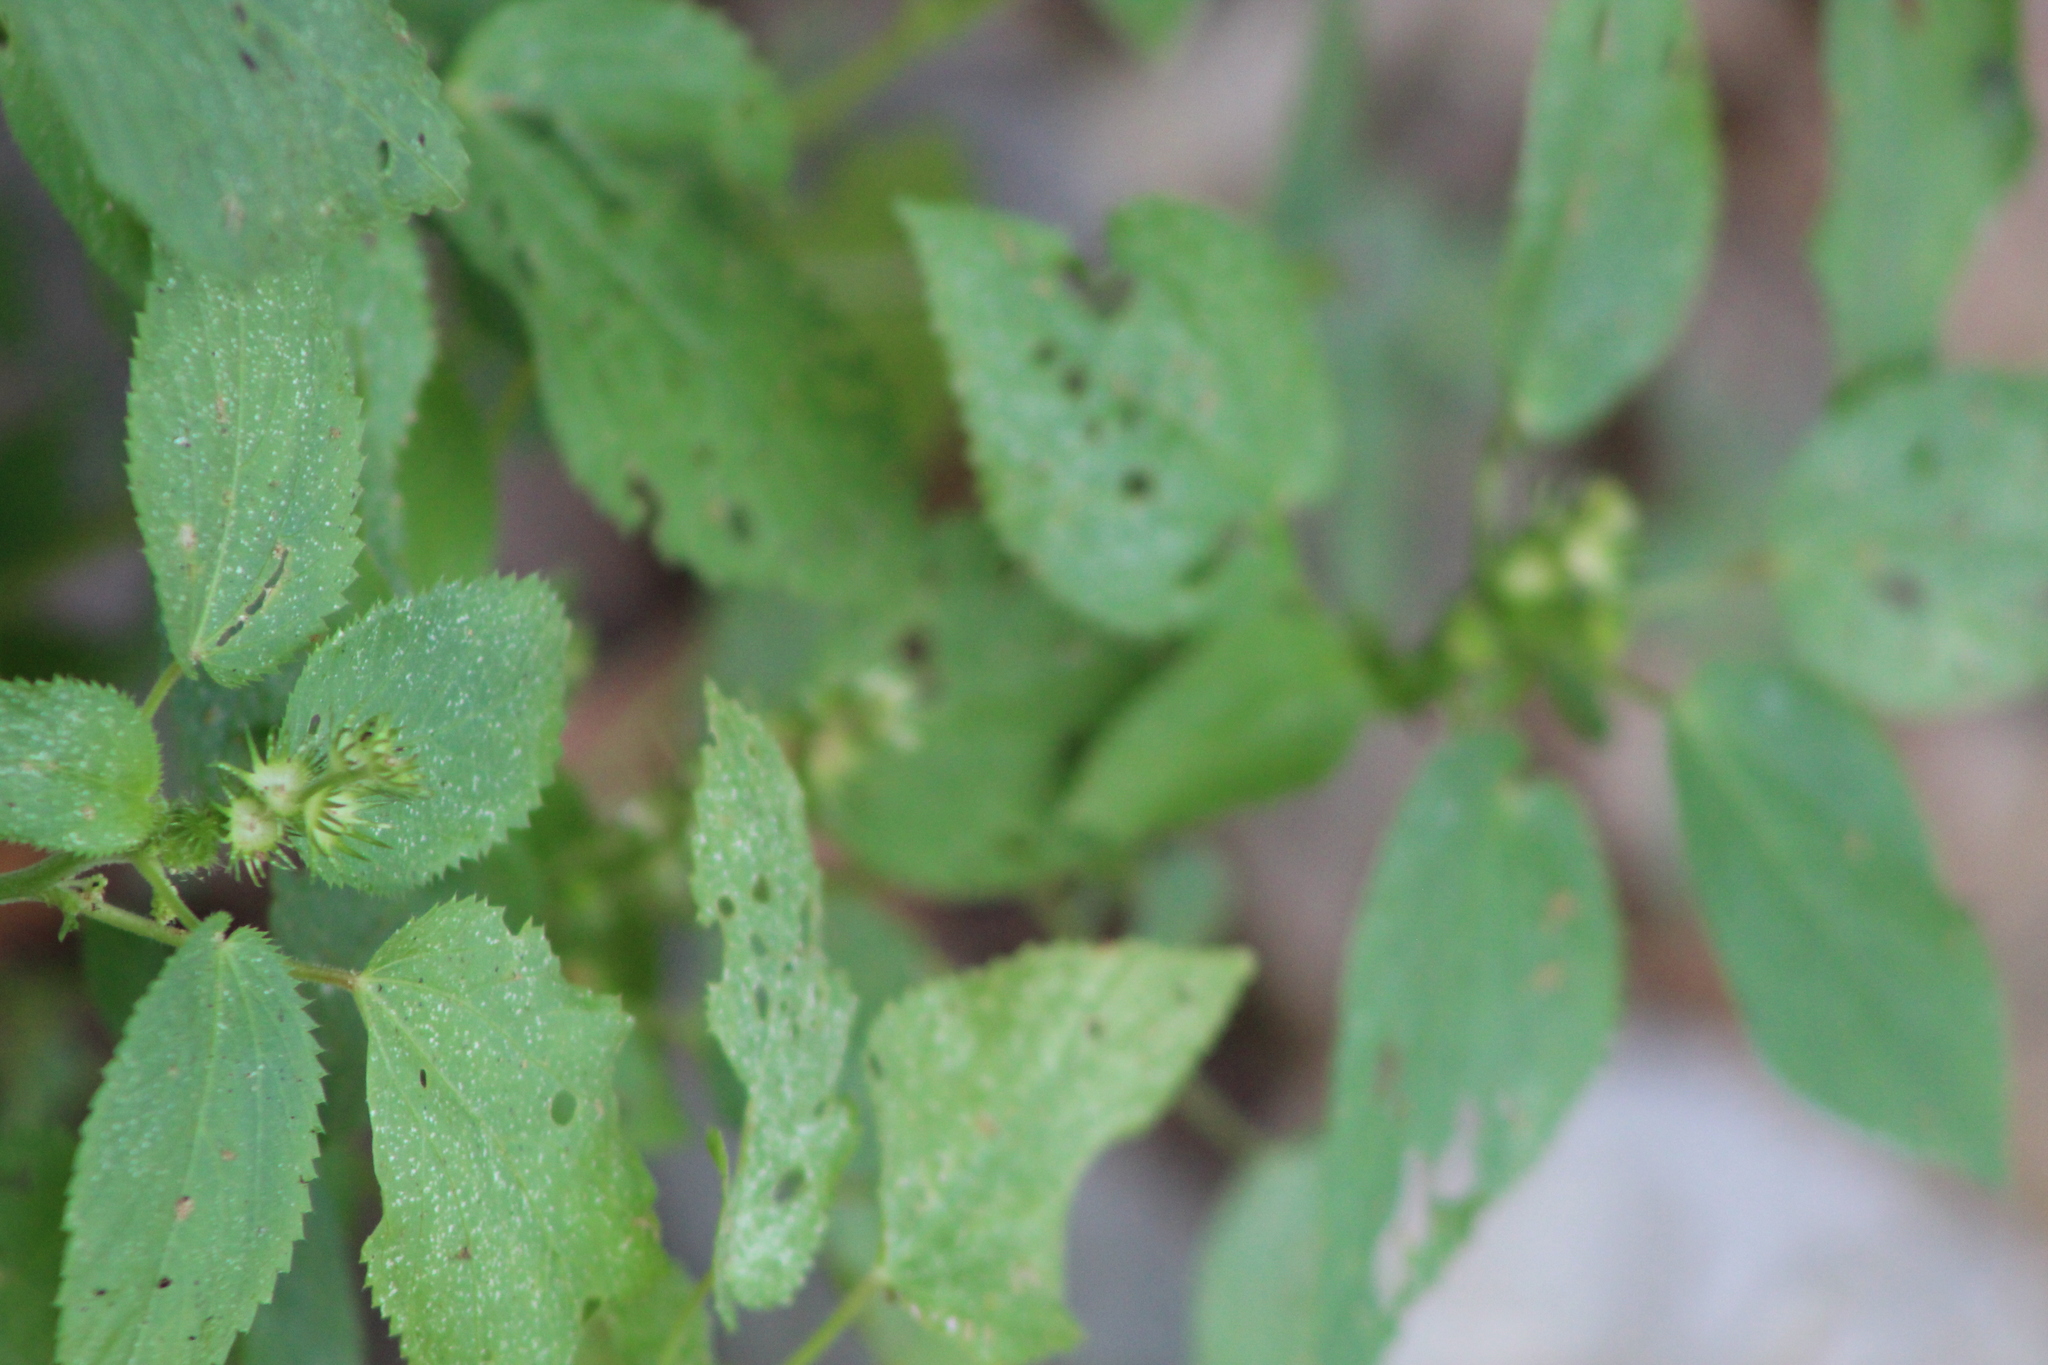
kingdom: Plantae
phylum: Tracheophyta
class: Magnoliopsida
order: Malpighiales
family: Euphorbiaceae
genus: Acalypha
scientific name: Acalypha ostryifolia
